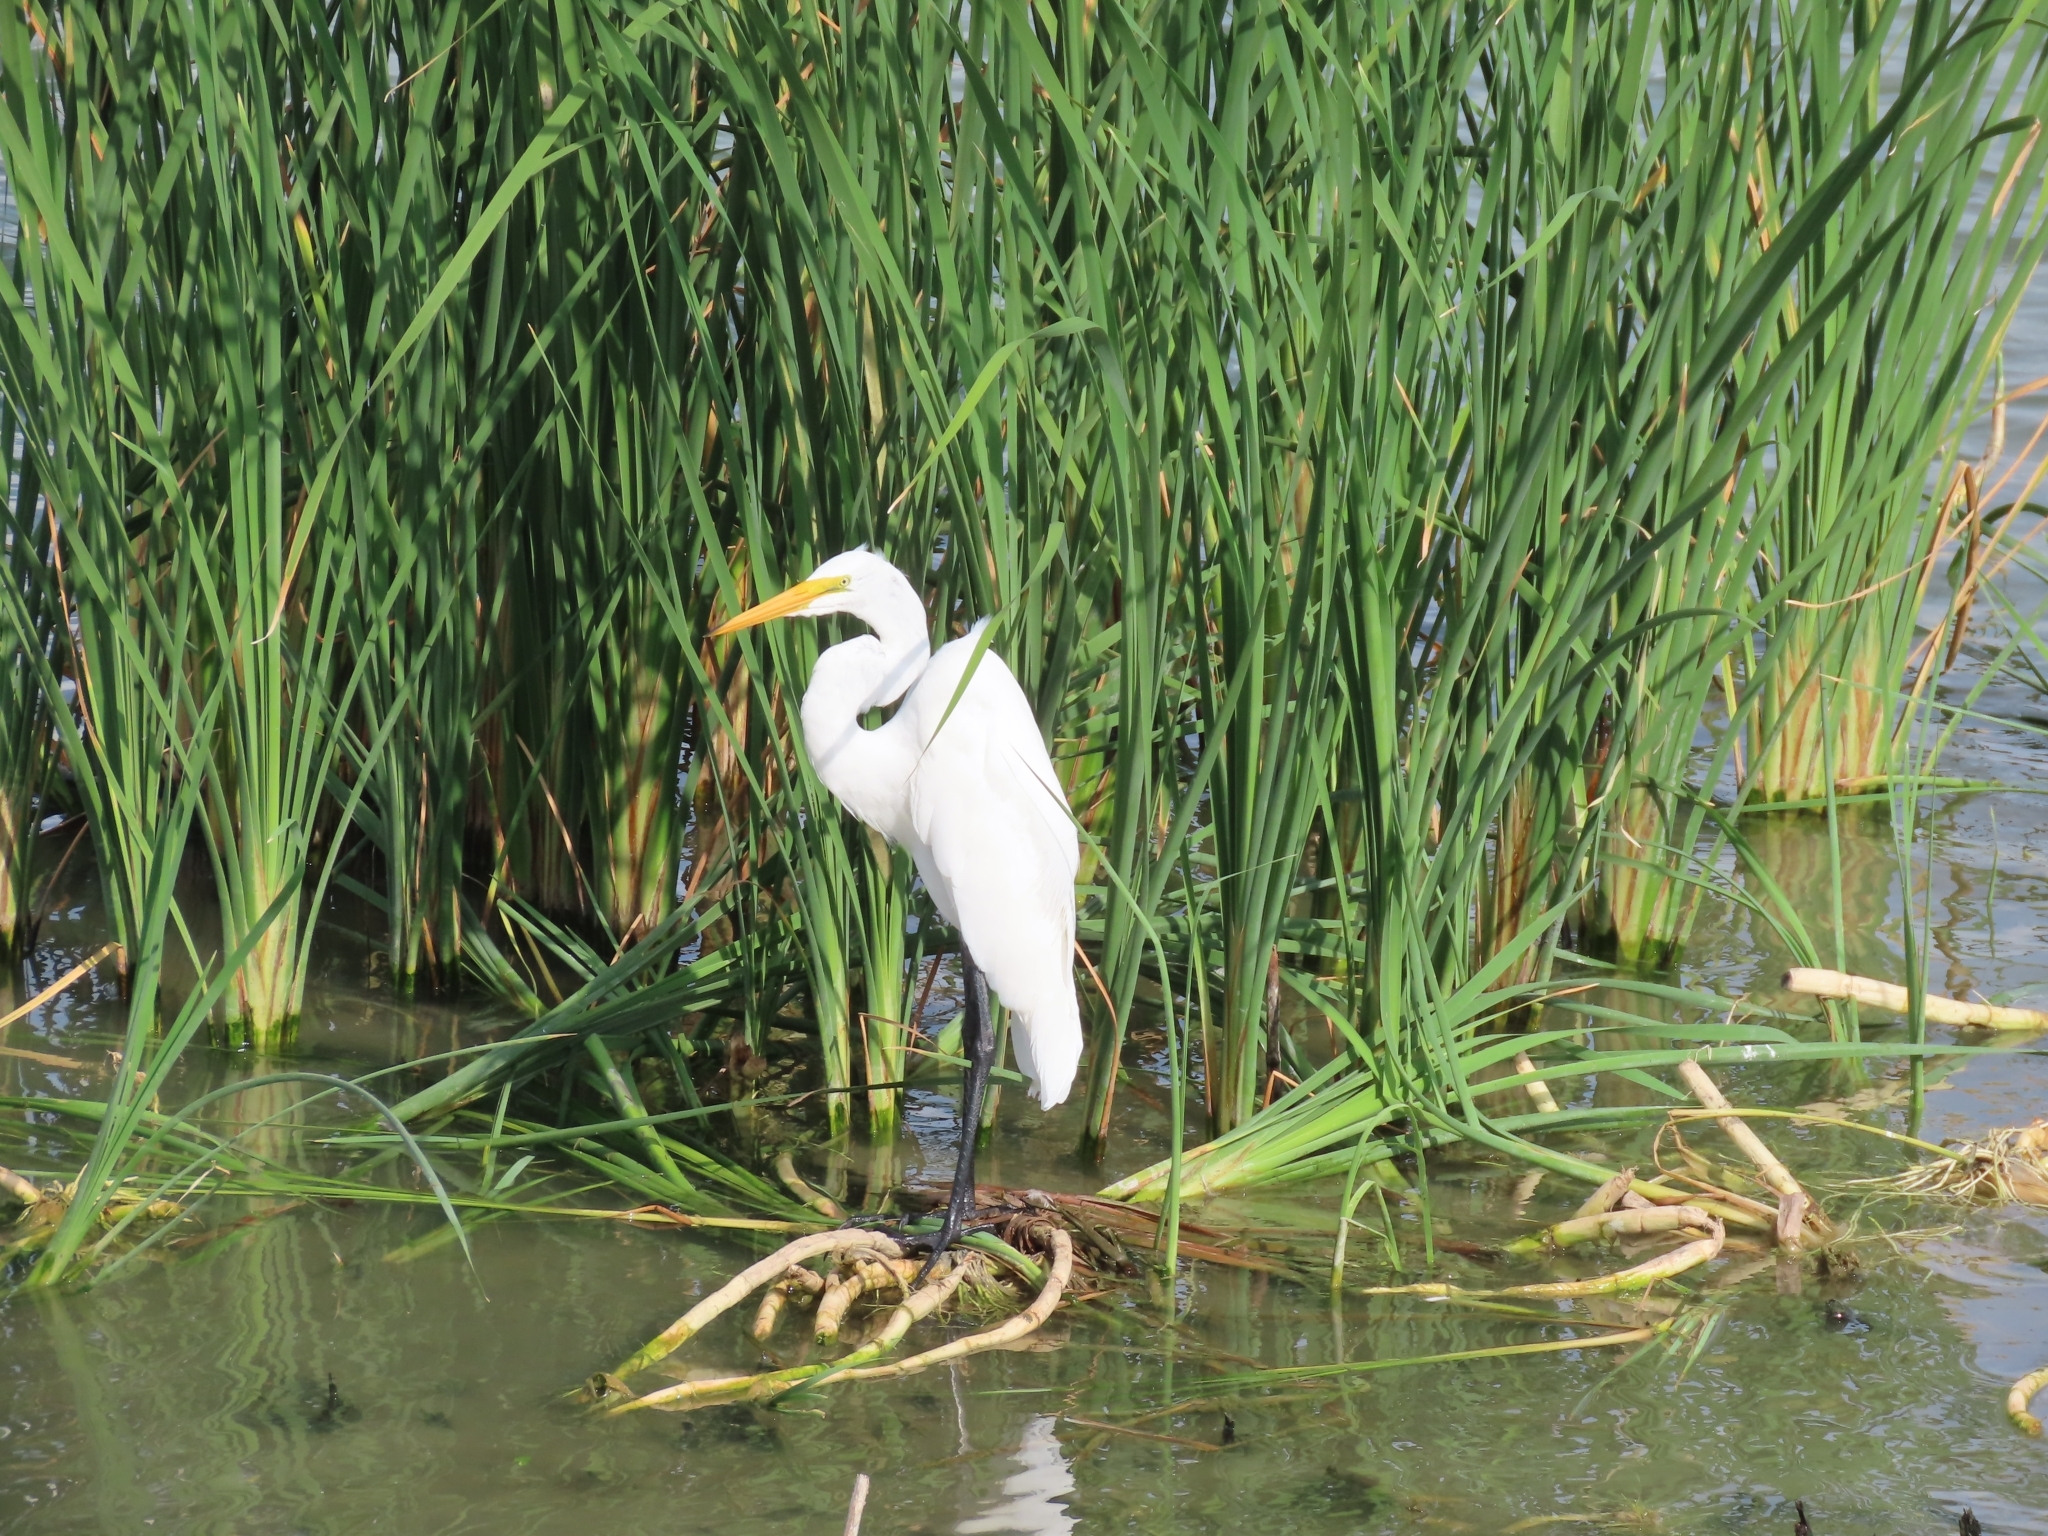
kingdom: Animalia
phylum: Chordata
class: Aves
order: Pelecaniformes
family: Ardeidae
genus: Ardea
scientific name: Ardea alba
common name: Great egret
